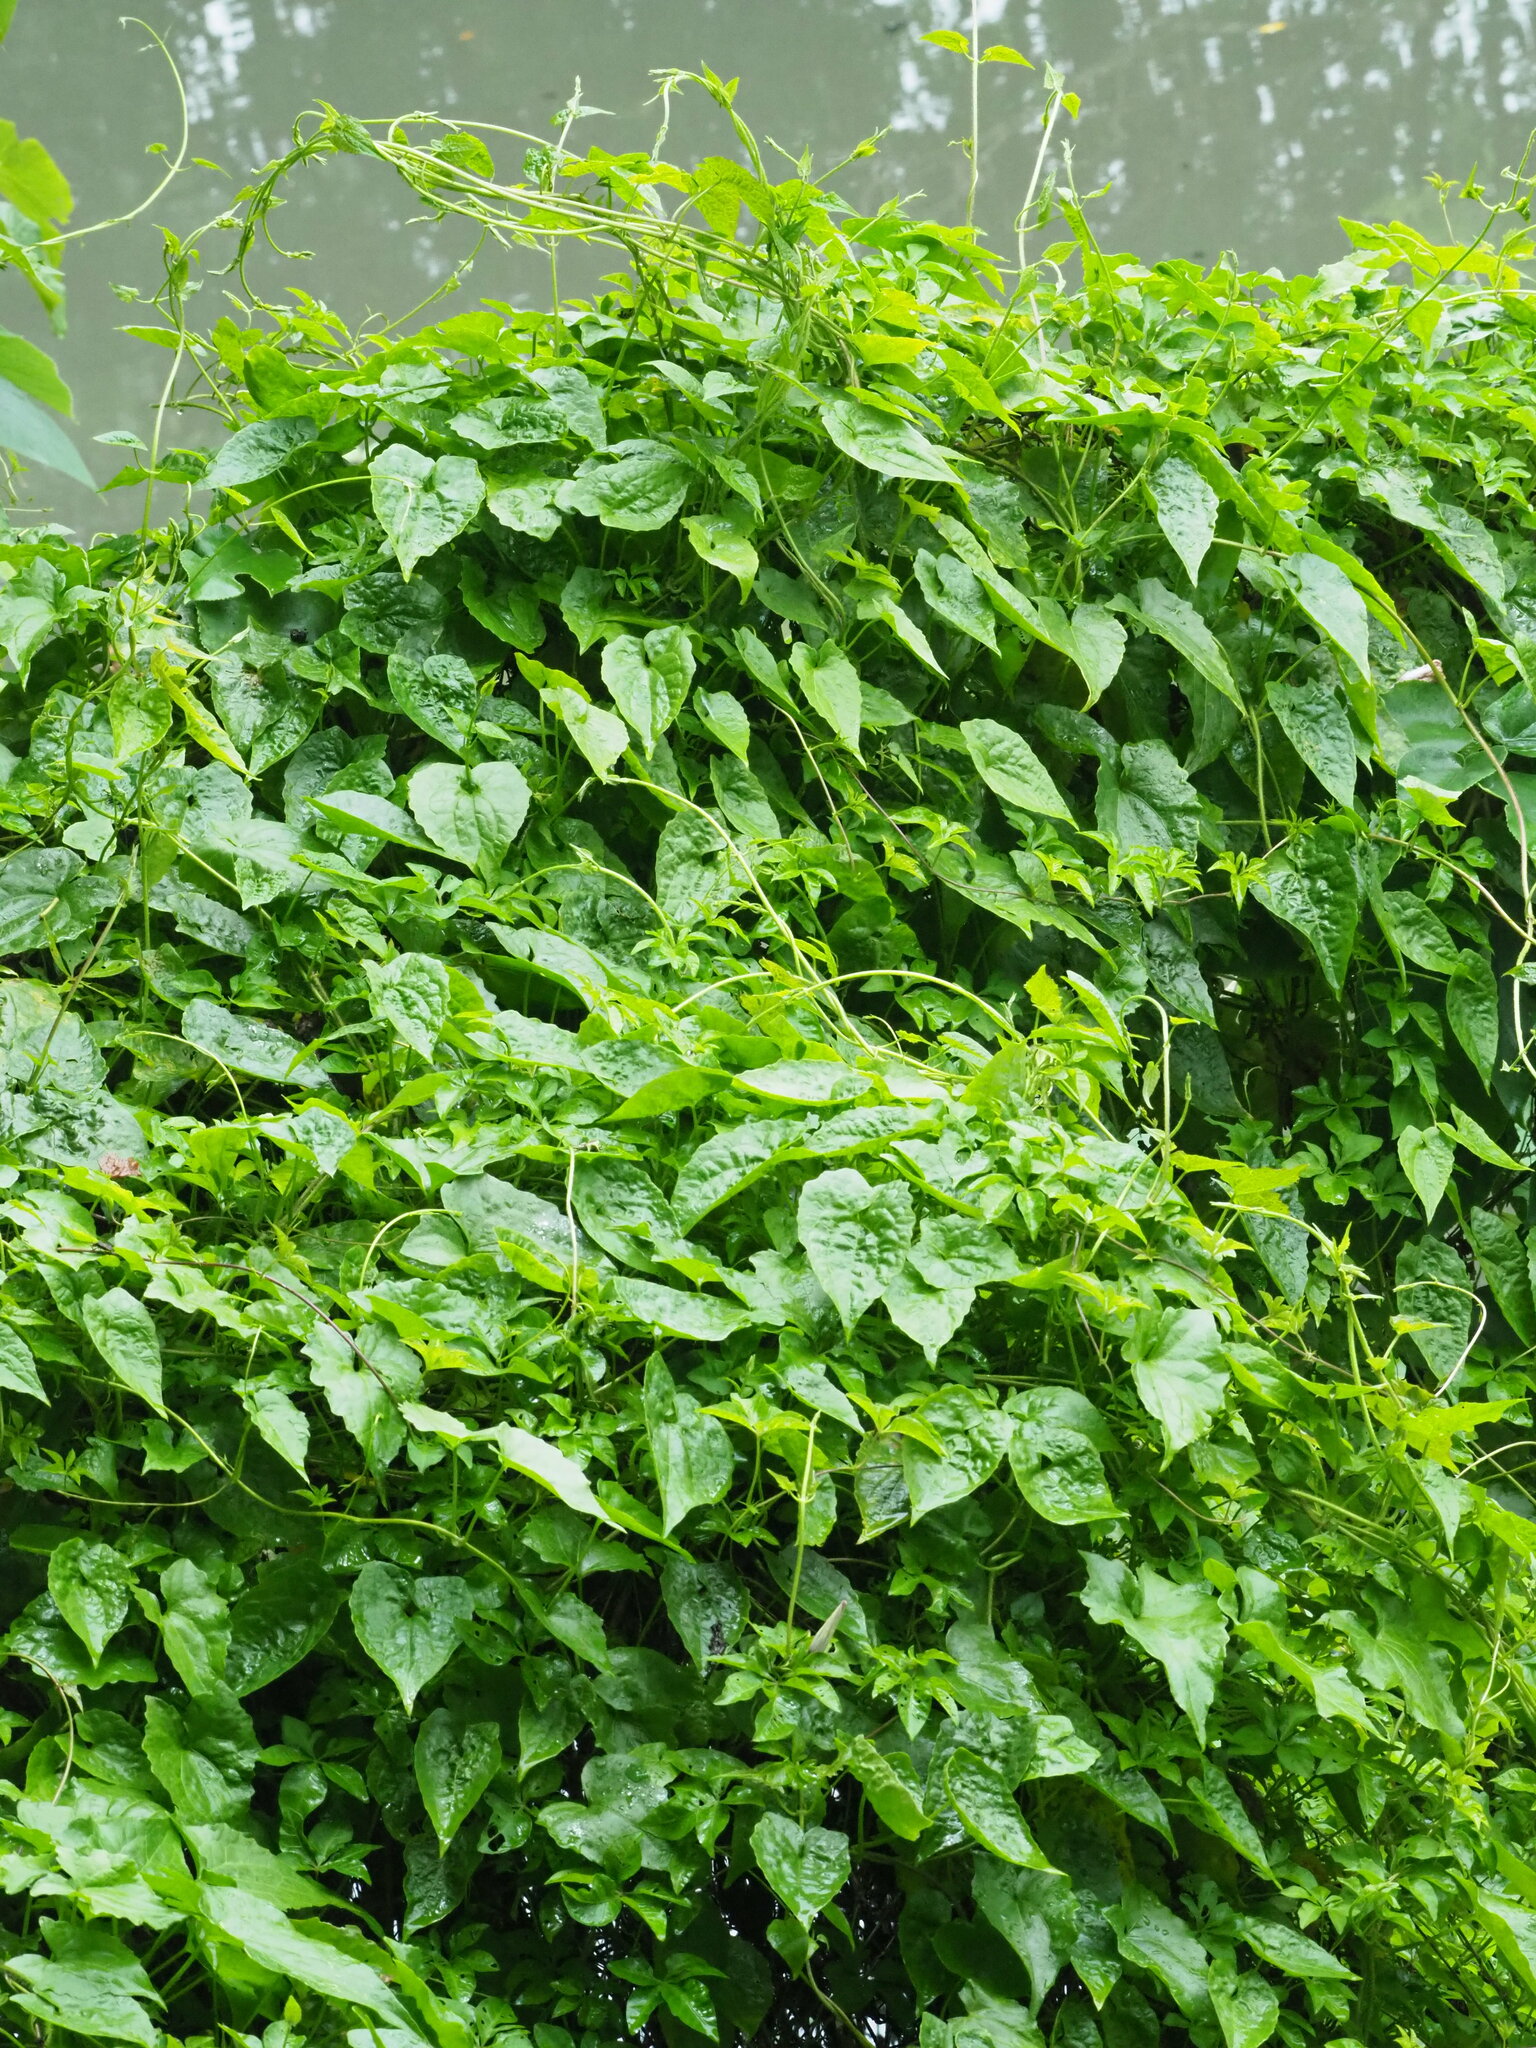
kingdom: Plantae
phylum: Tracheophyta
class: Magnoliopsida
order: Asterales
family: Asteraceae
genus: Mikania
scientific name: Mikania micrantha
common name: Mile-a-minute
